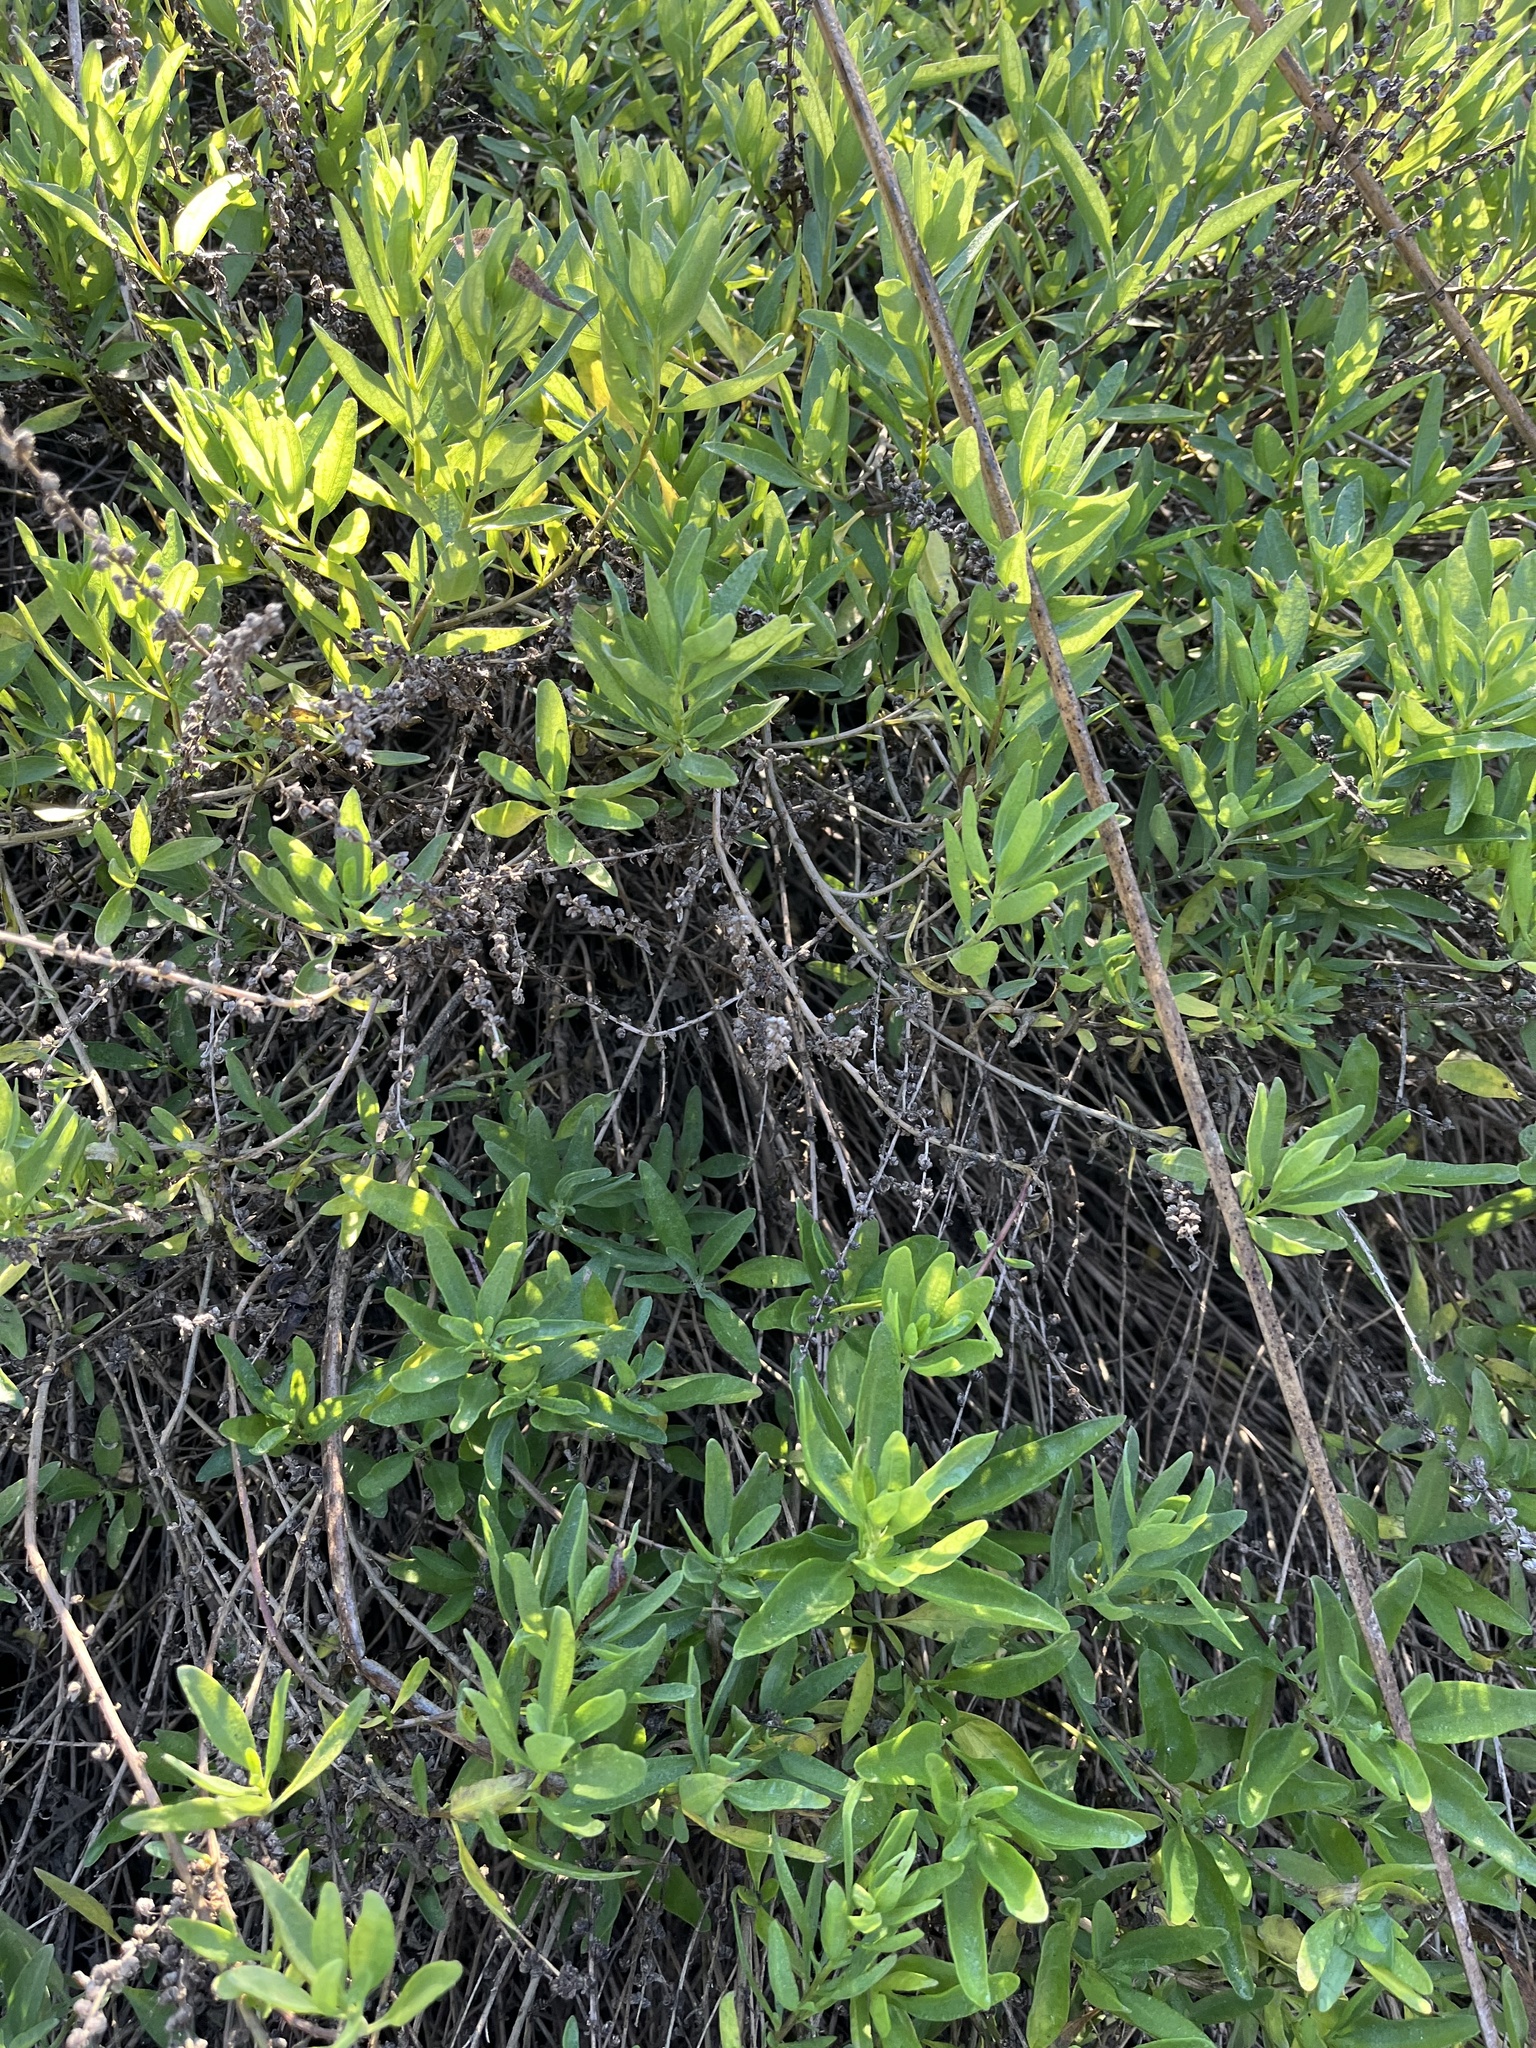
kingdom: Plantae
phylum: Tracheophyta
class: Magnoliopsida
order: Asterales
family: Asteraceae
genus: Iva
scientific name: Iva hayesiana
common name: San diego marsh-elder
